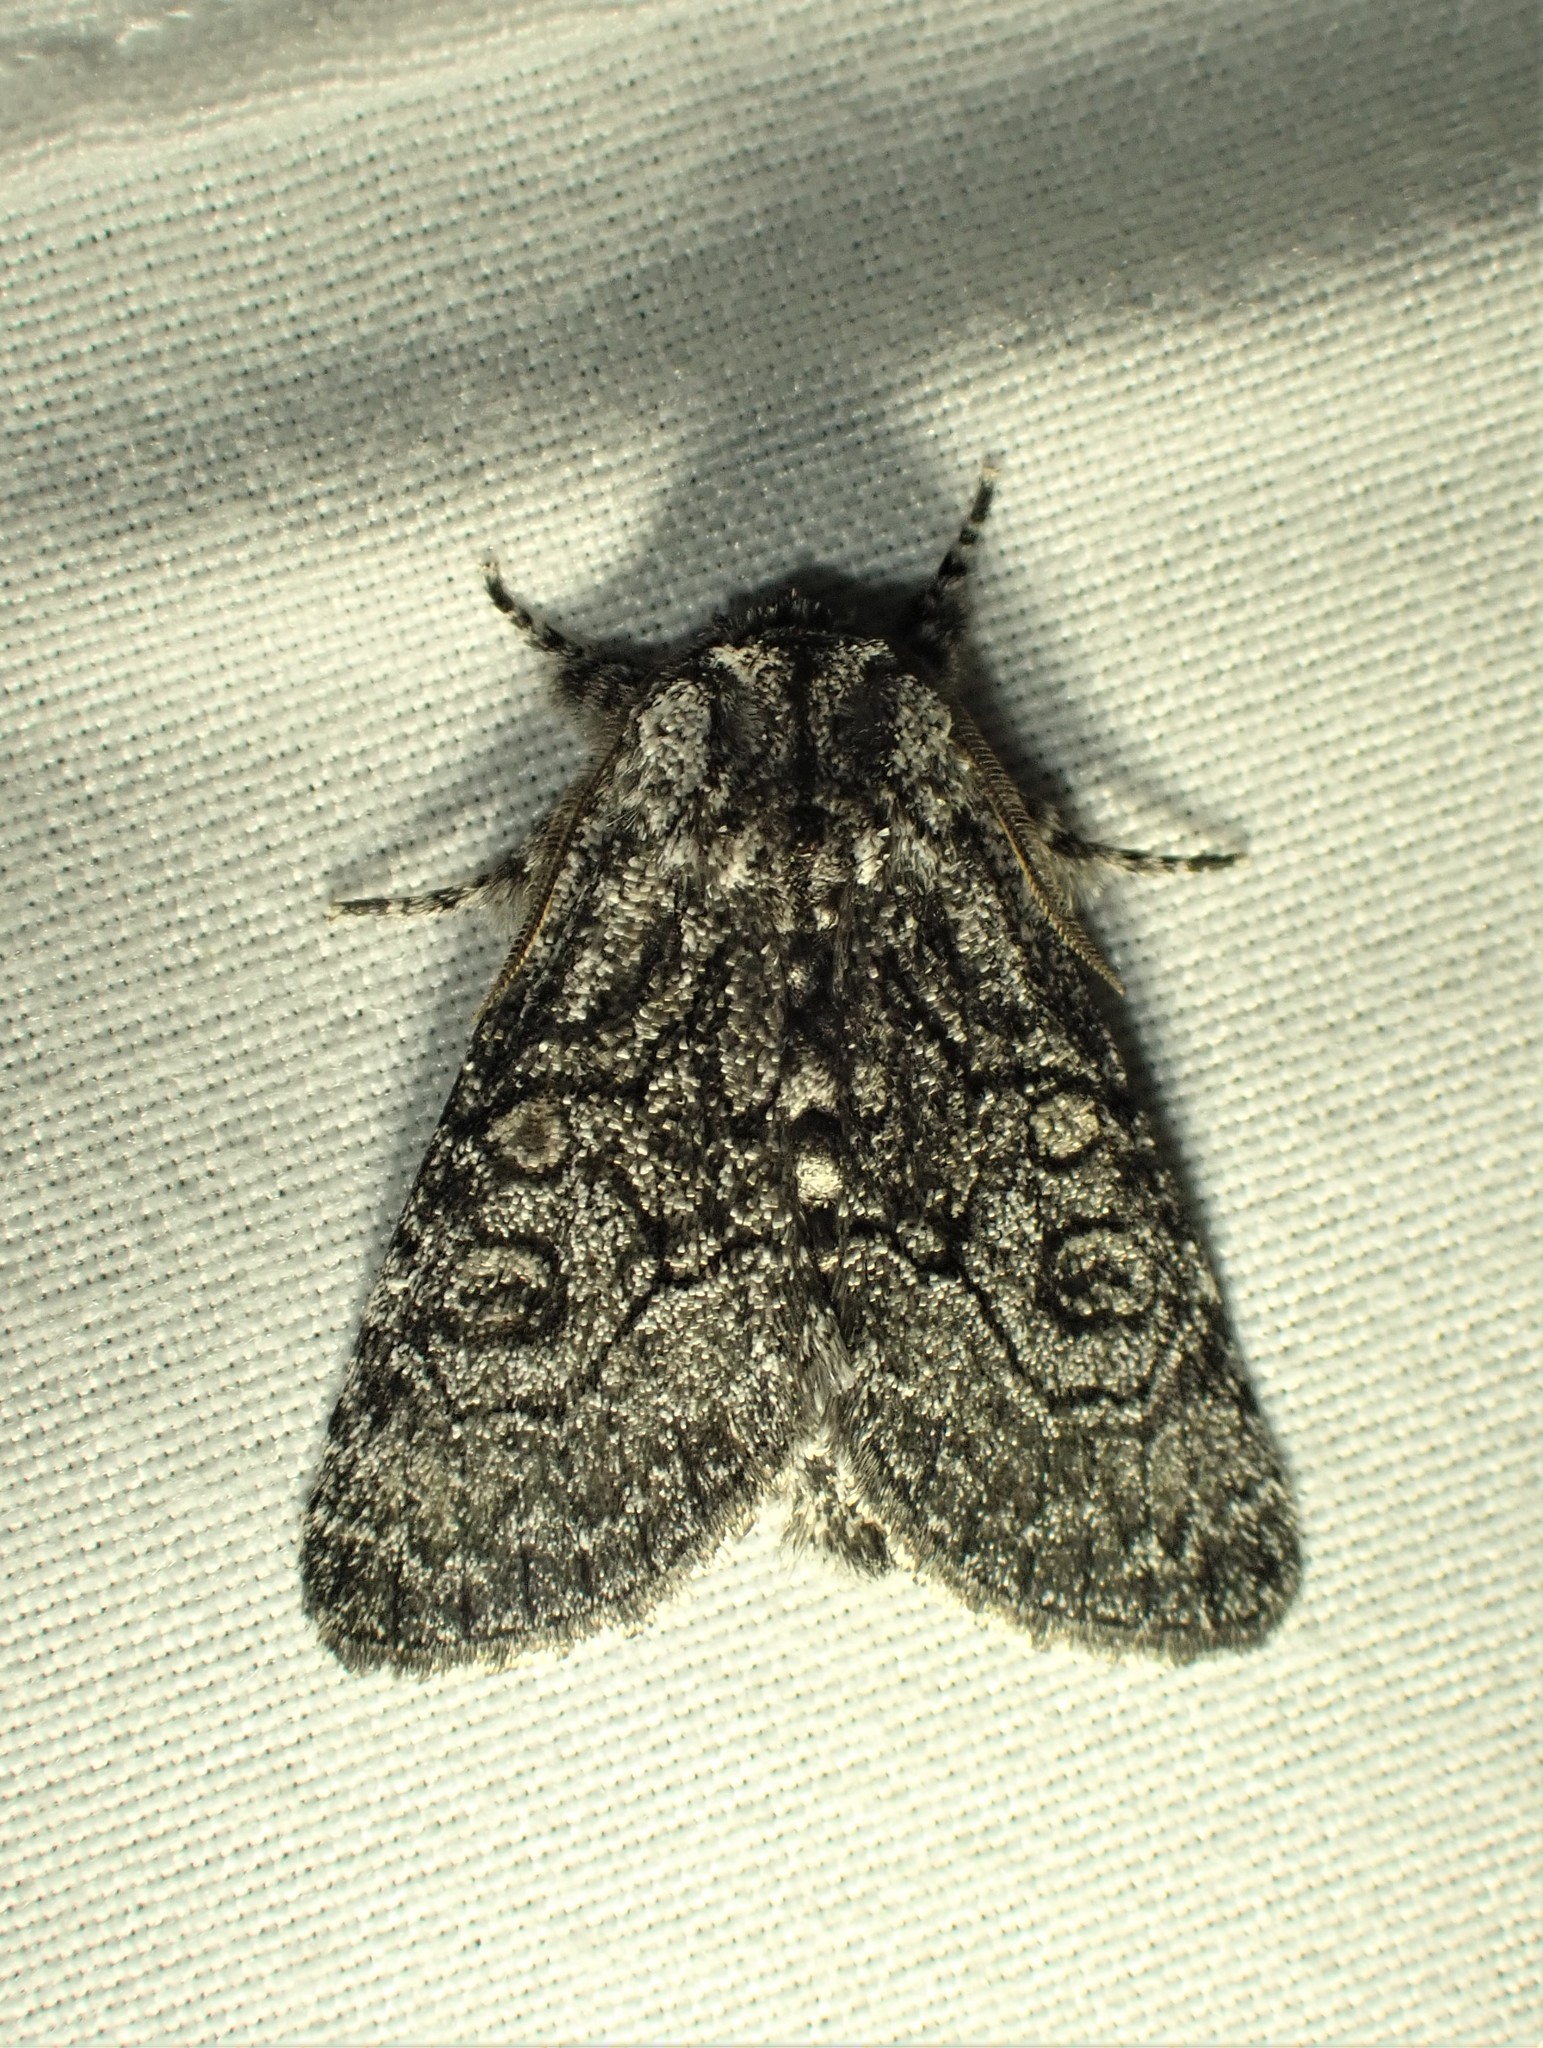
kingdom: Animalia
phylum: Arthropoda
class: Insecta
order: Lepidoptera
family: Noctuidae
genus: Raphia
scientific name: Raphia frater
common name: Brother
